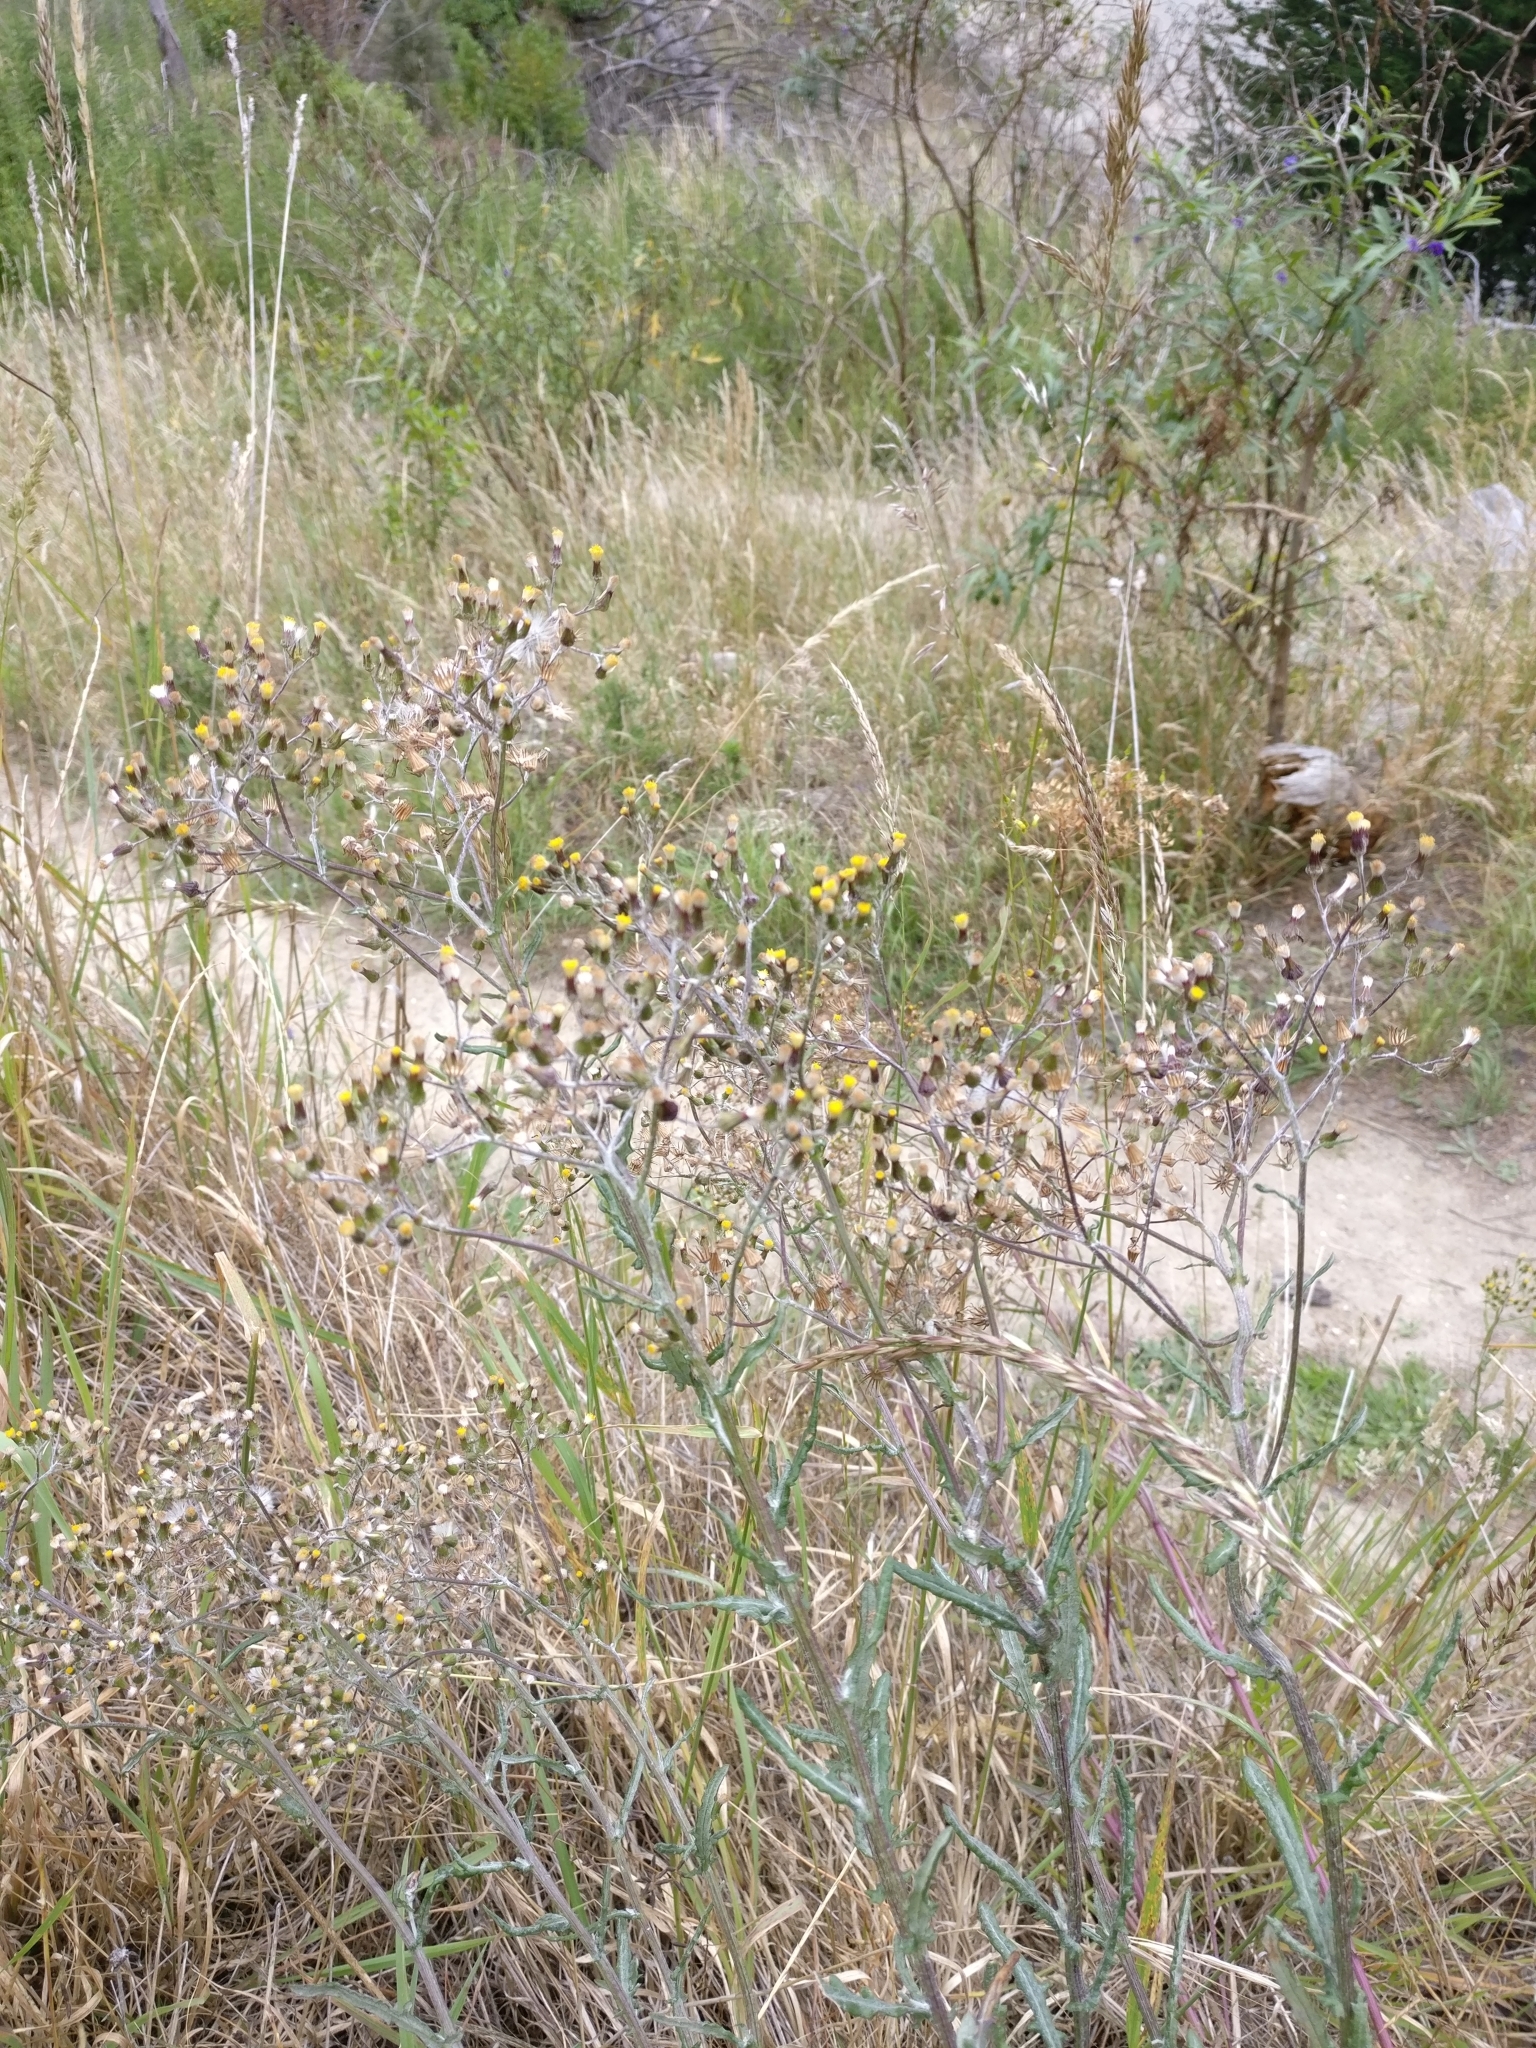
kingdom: Plantae
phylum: Tracheophyta
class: Magnoliopsida
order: Asterales
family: Asteraceae
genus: Senecio
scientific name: Senecio quadridentatus
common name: Cotton fireweed
